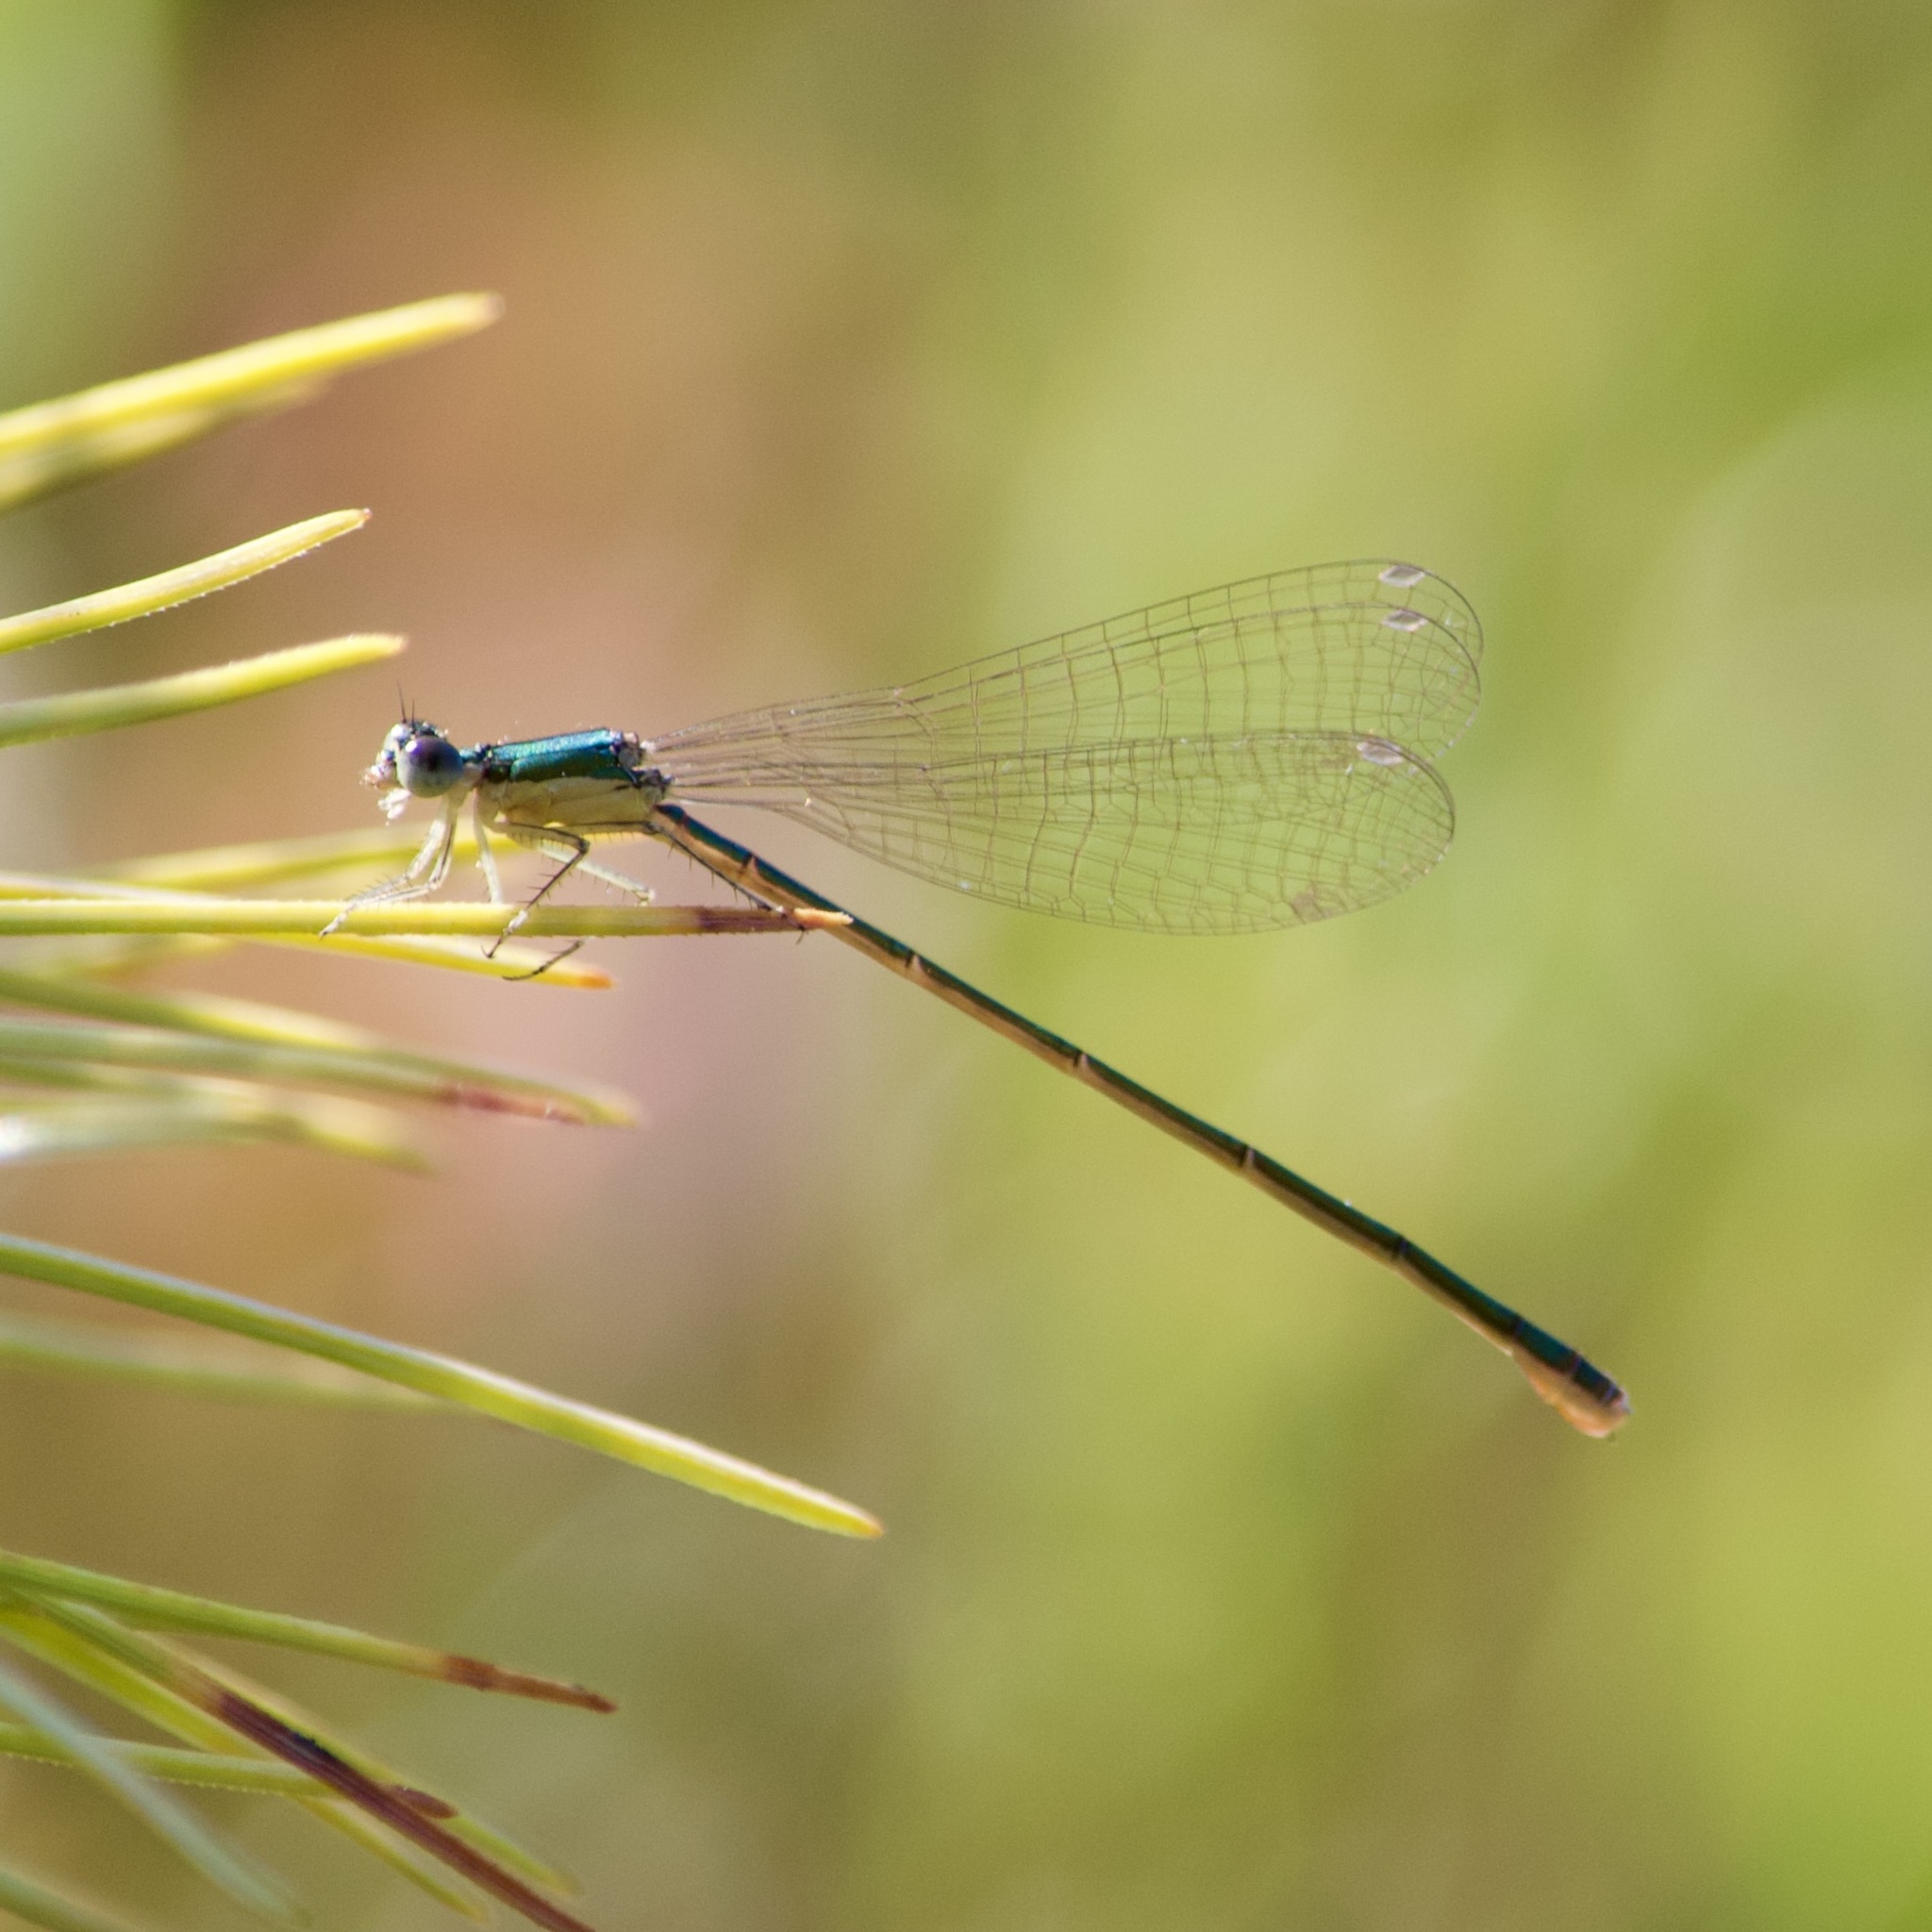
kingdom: Animalia
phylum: Arthropoda
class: Insecta
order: Odonata
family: Coenagrionidae
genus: Nehalennia
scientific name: Nehalennia irene
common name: Sedge sprite
